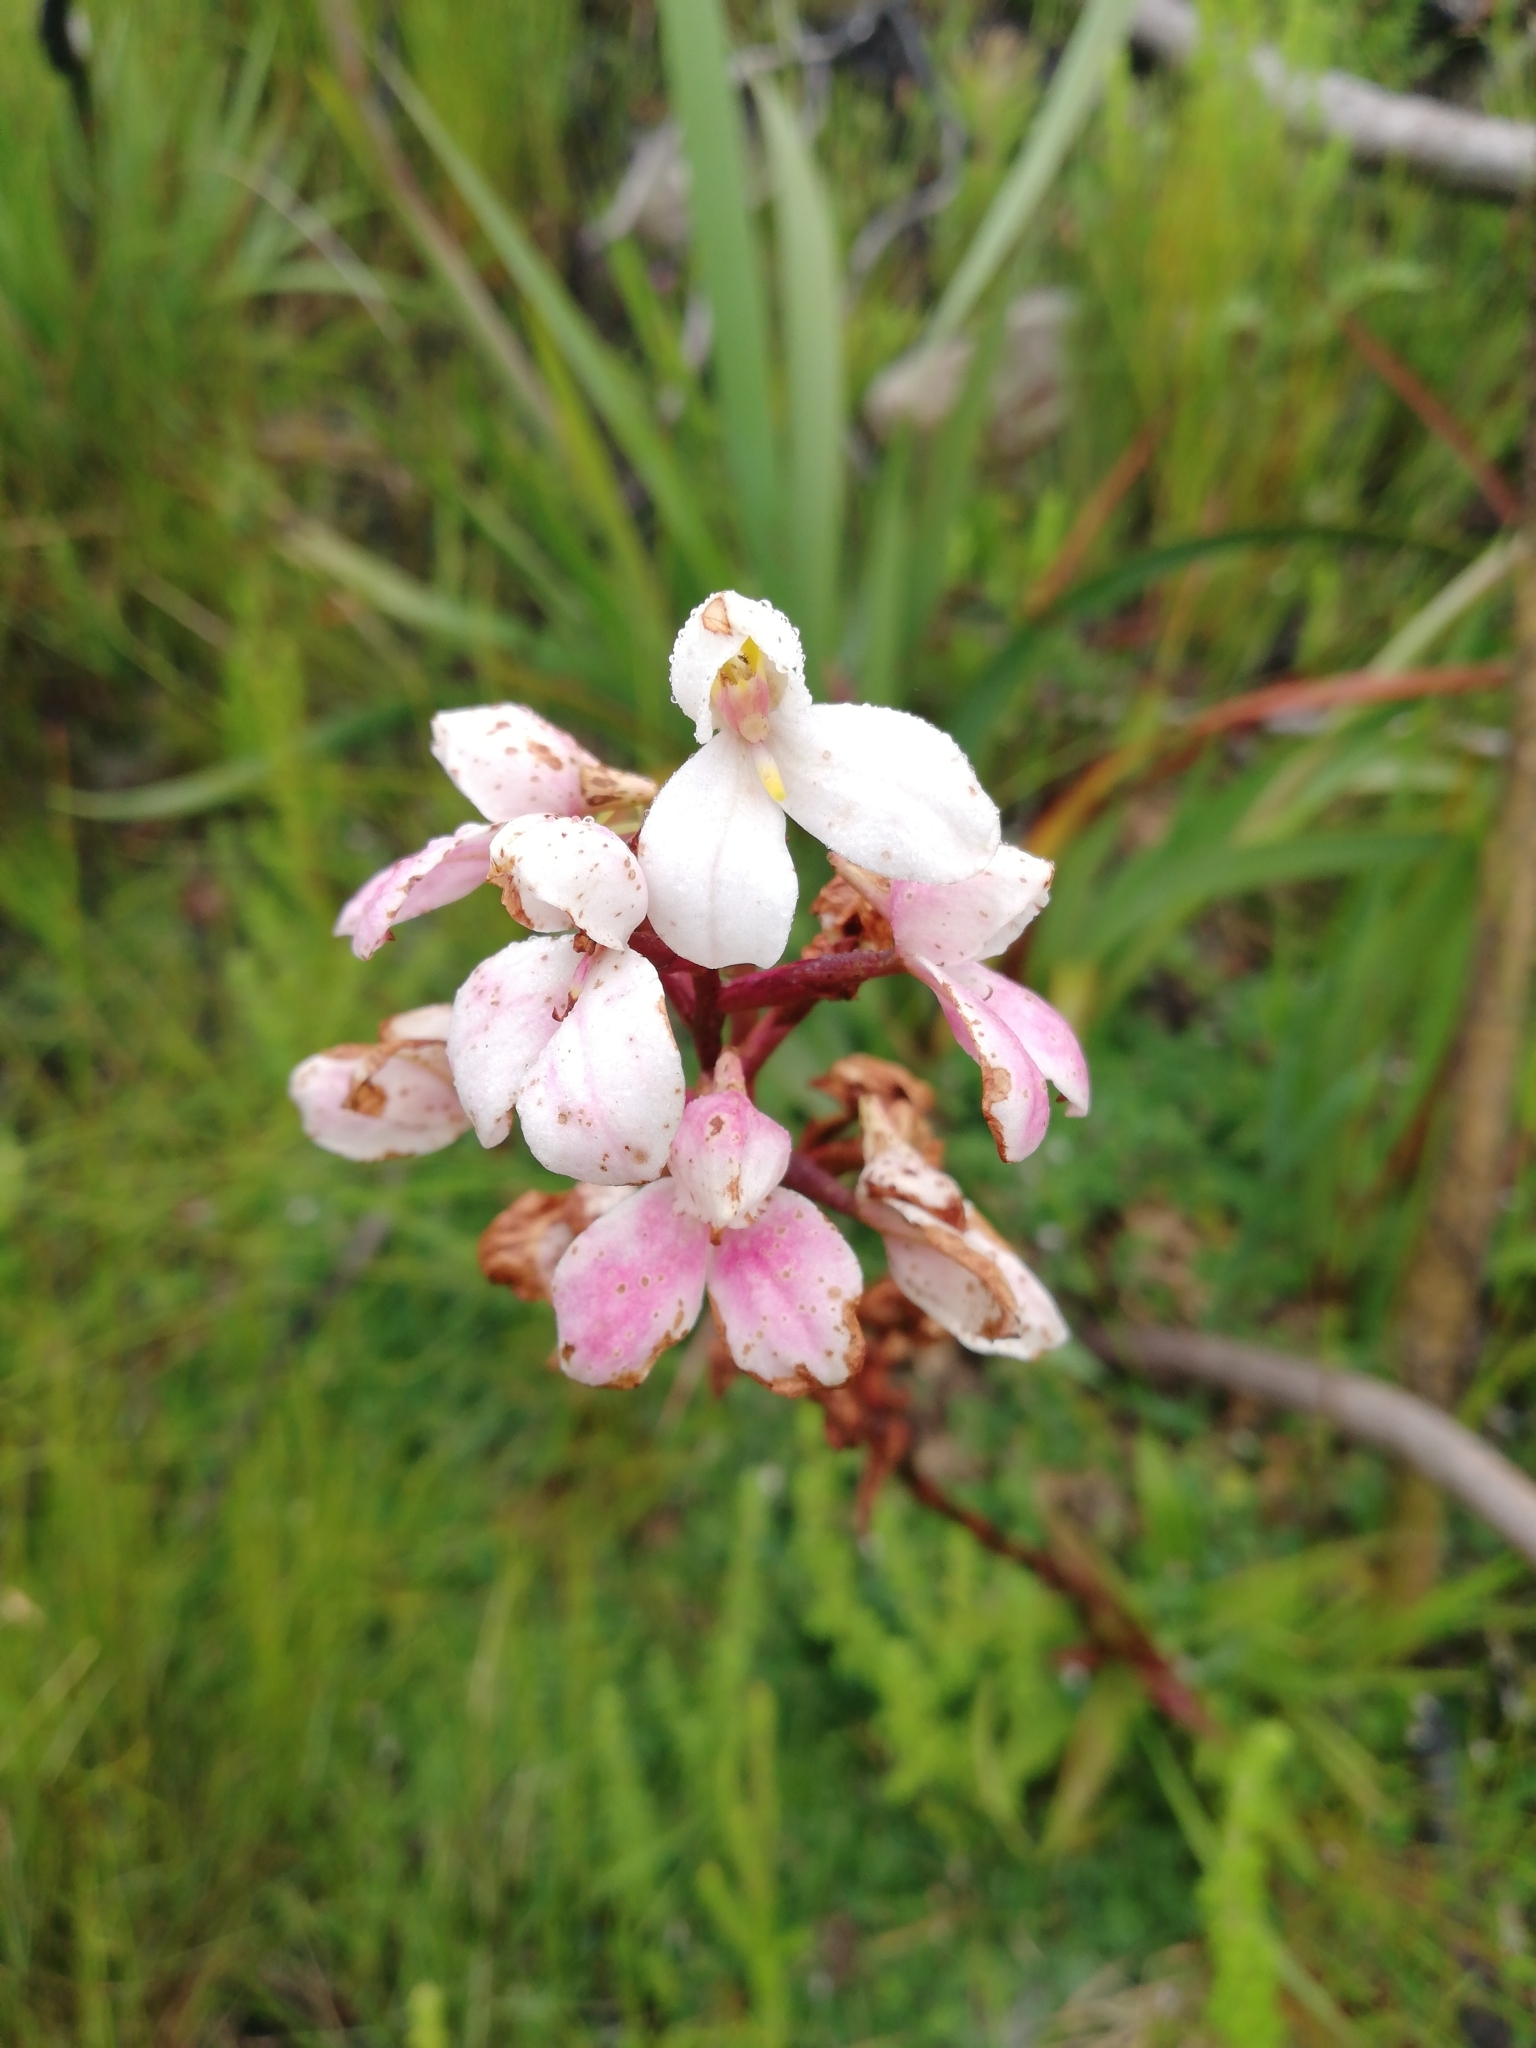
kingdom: Plantae
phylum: Tracheophyta
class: Liliopsida
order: Asparagales
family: Orchidaceae
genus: Disa
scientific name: Disa tripetaloides
